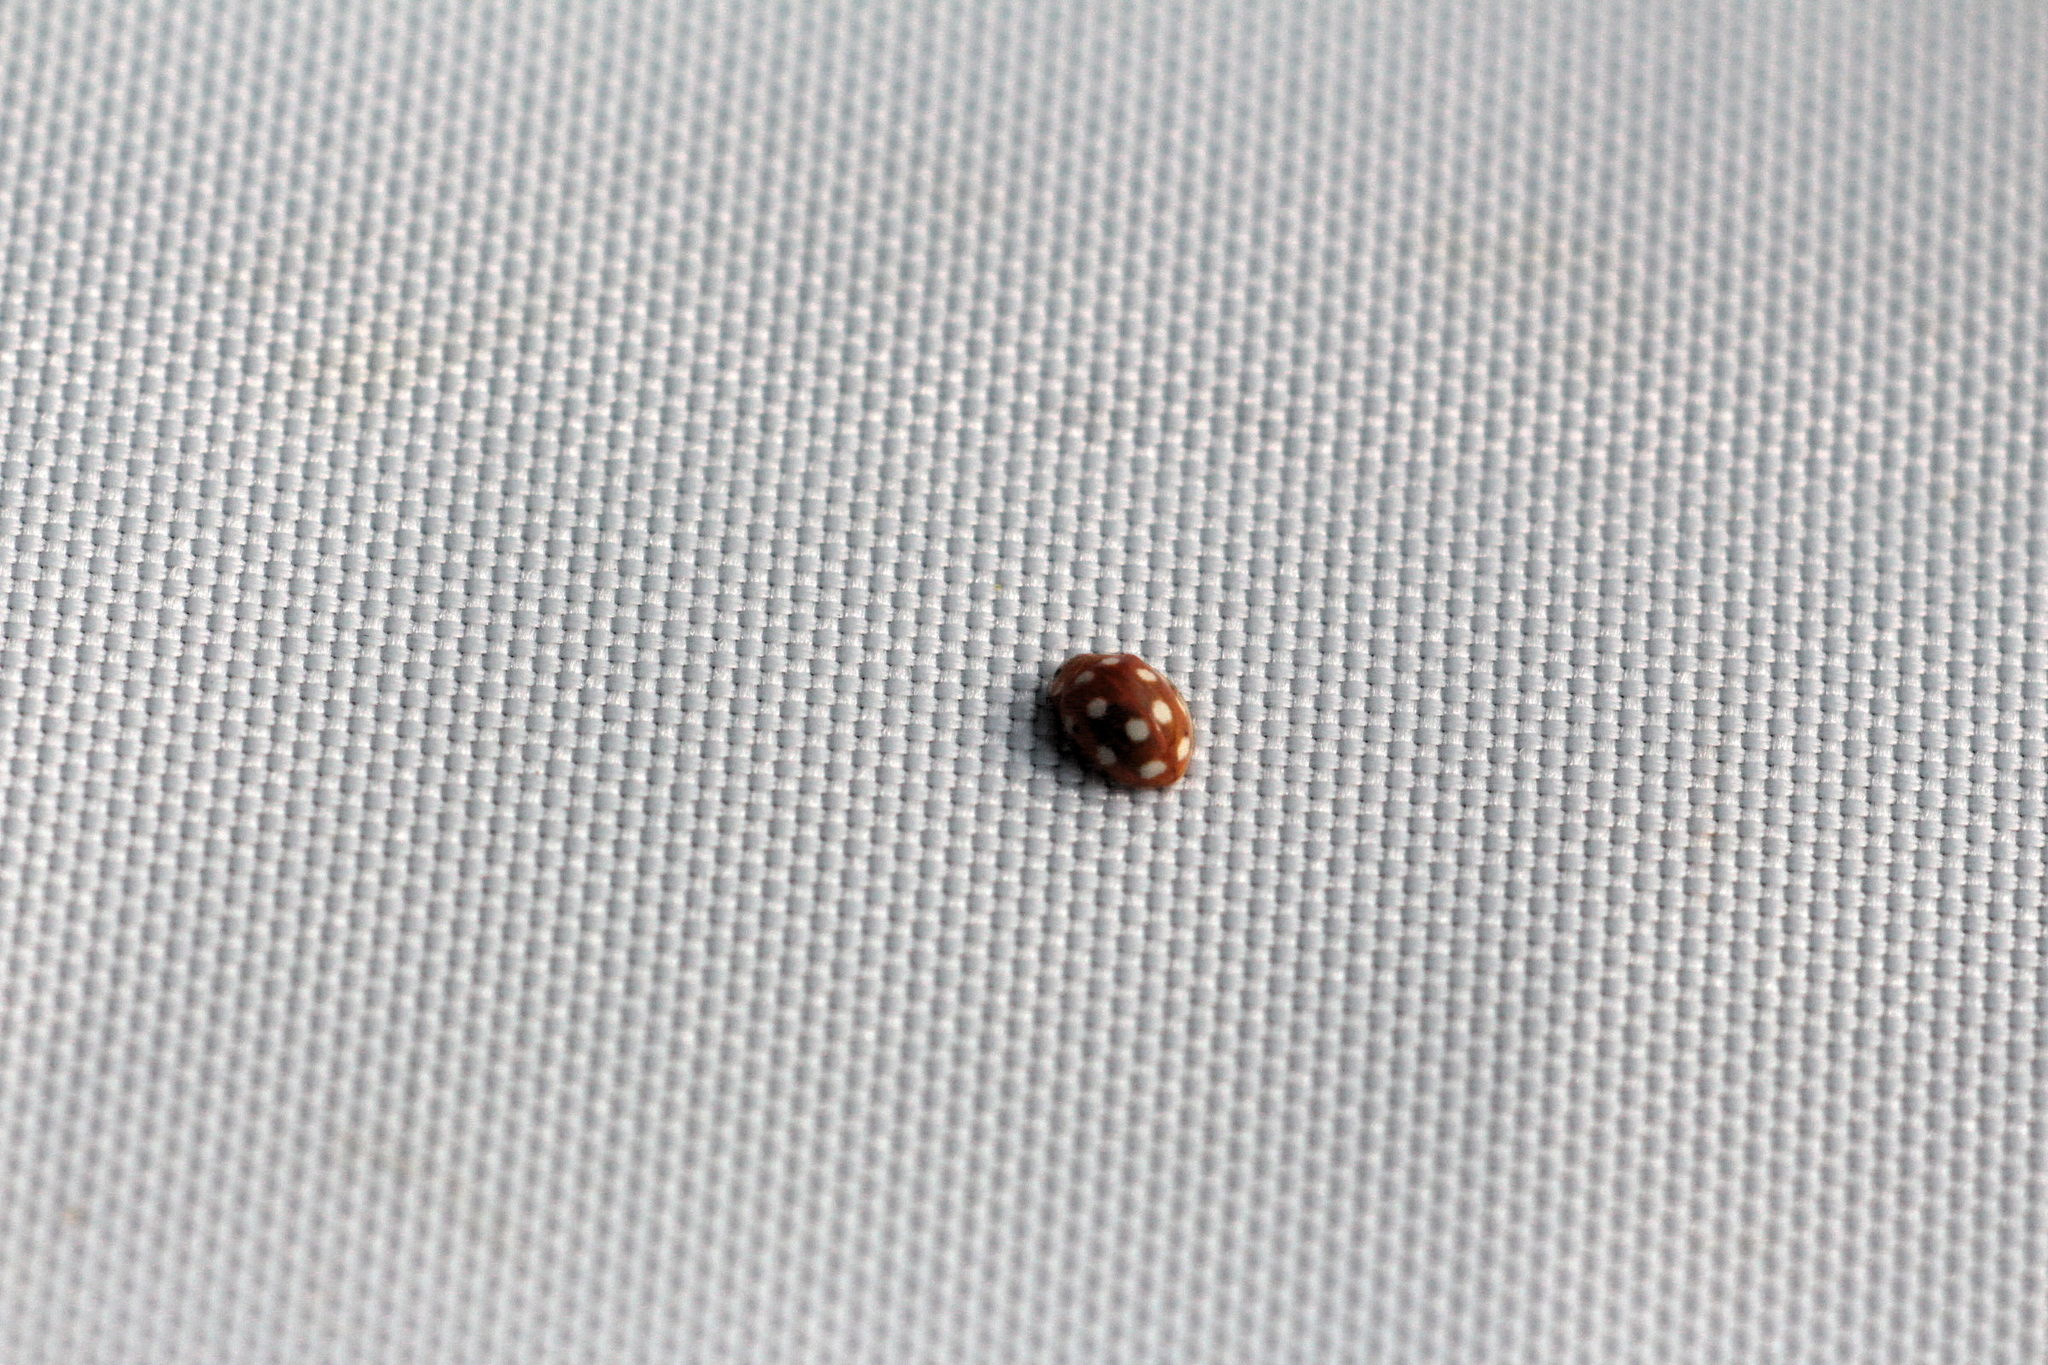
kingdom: Animalia
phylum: Arthropoda
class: Insecta
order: Coleoptera
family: Coccinellidae
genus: Vibidia
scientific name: Vibidia duodecimguttata
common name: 12-spot ladybird
